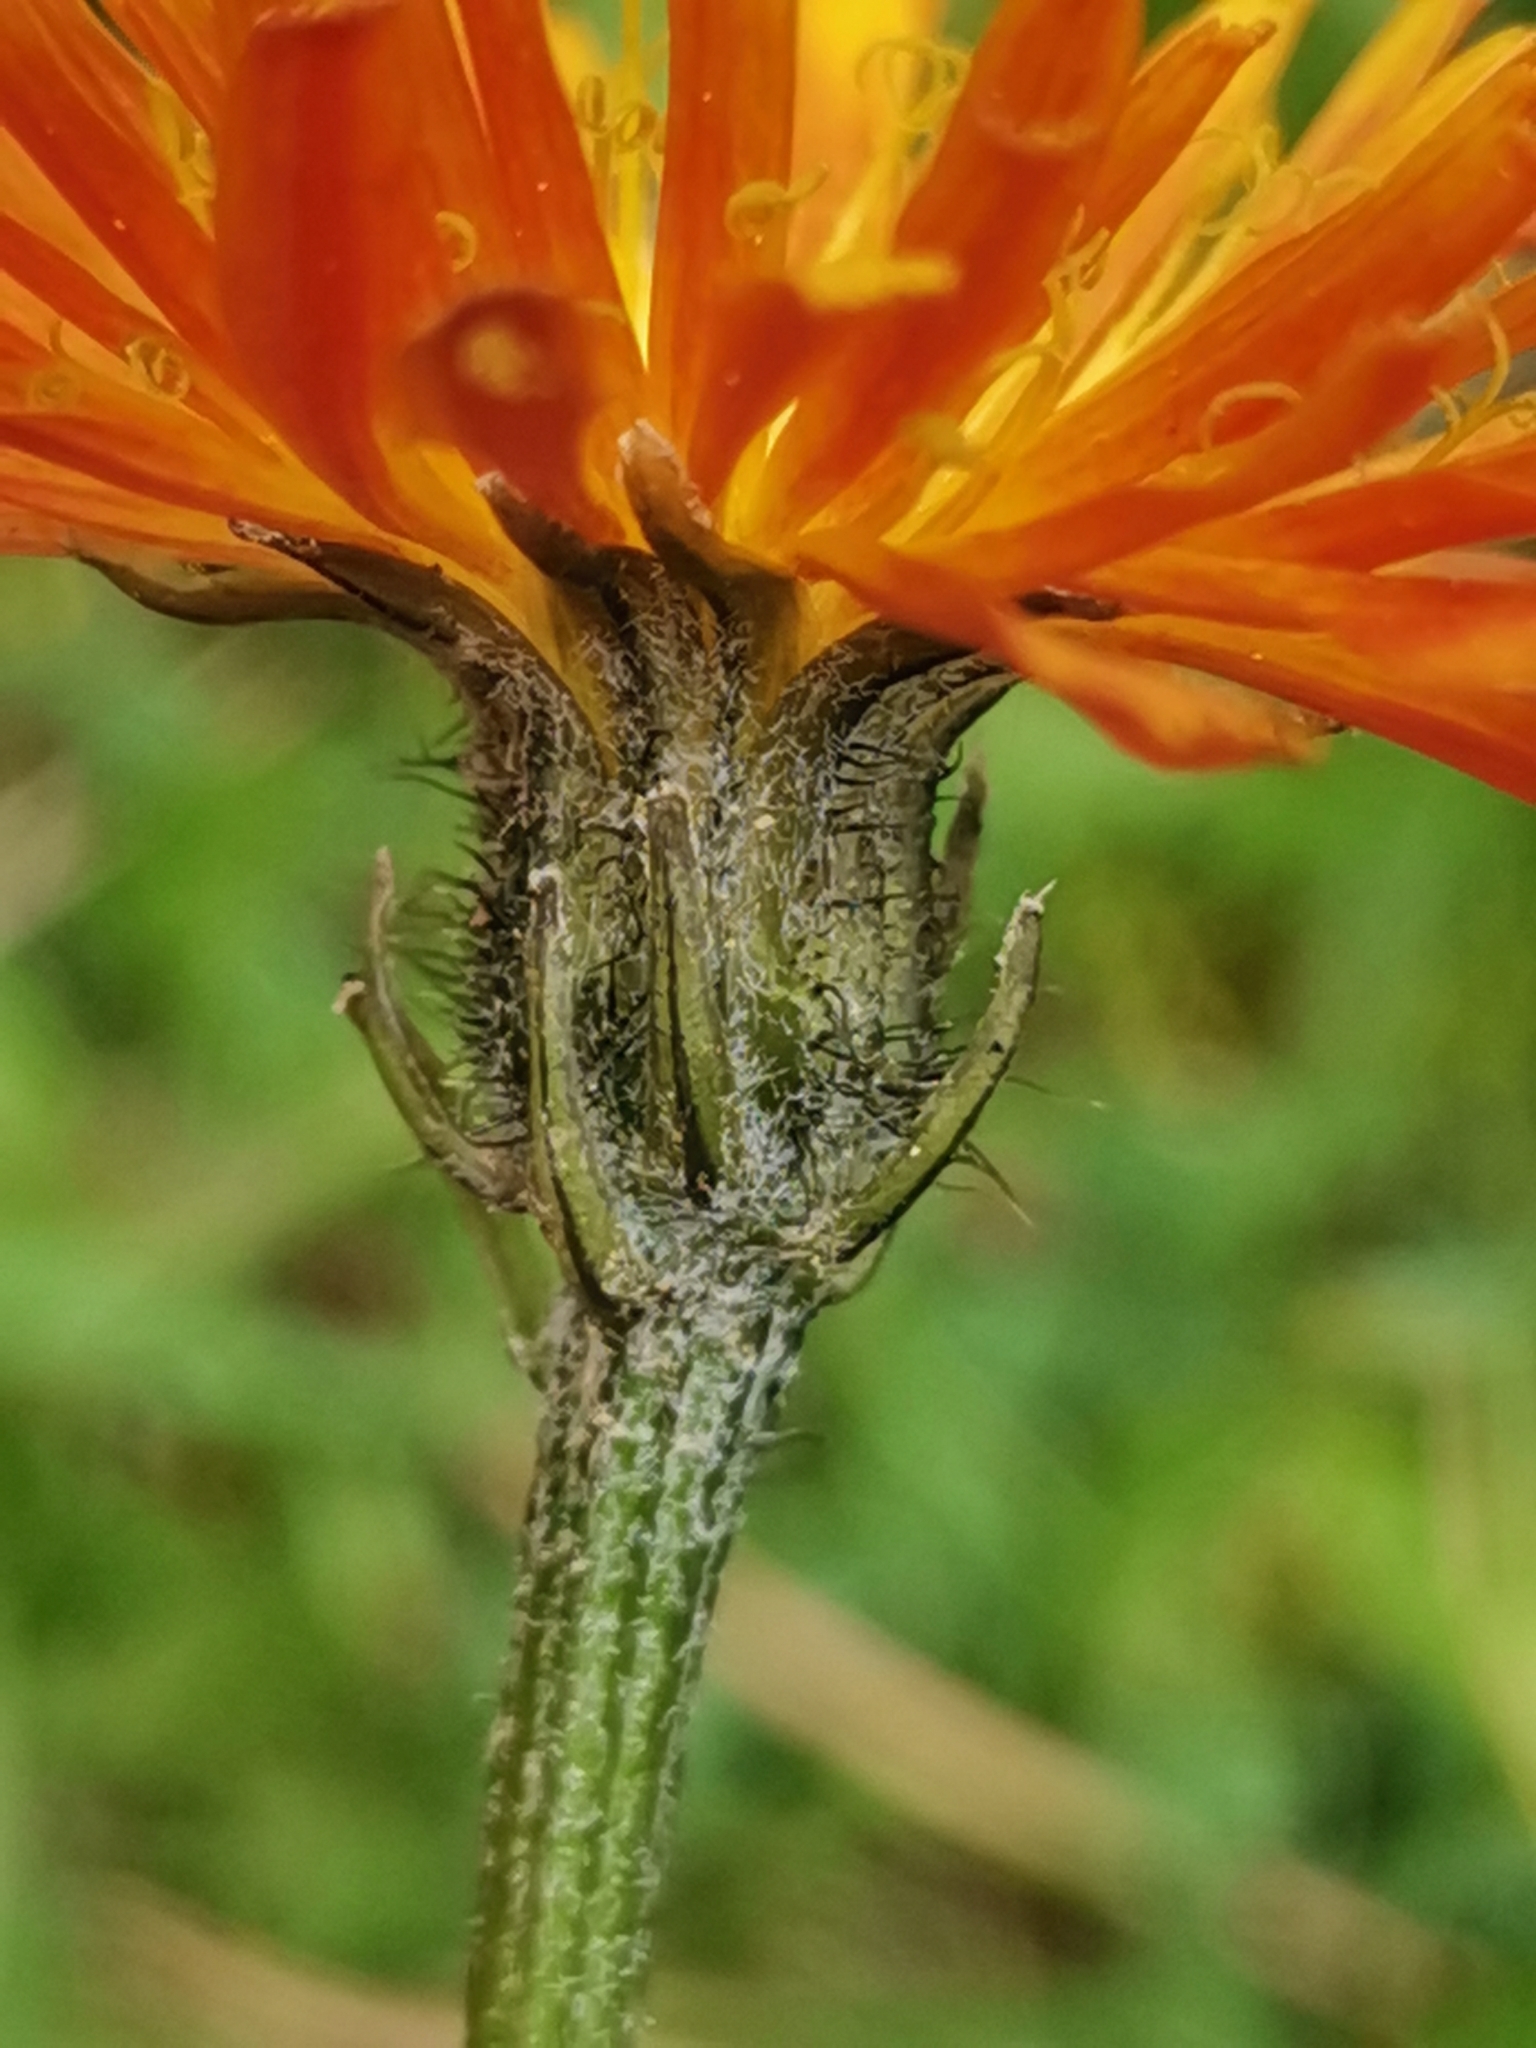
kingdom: Plantae
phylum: Tracheophyta
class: Magnoliopsida
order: Asterales
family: Asteraceae
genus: Crepis
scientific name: Crepis aurea
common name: Golden hawk's-beard
